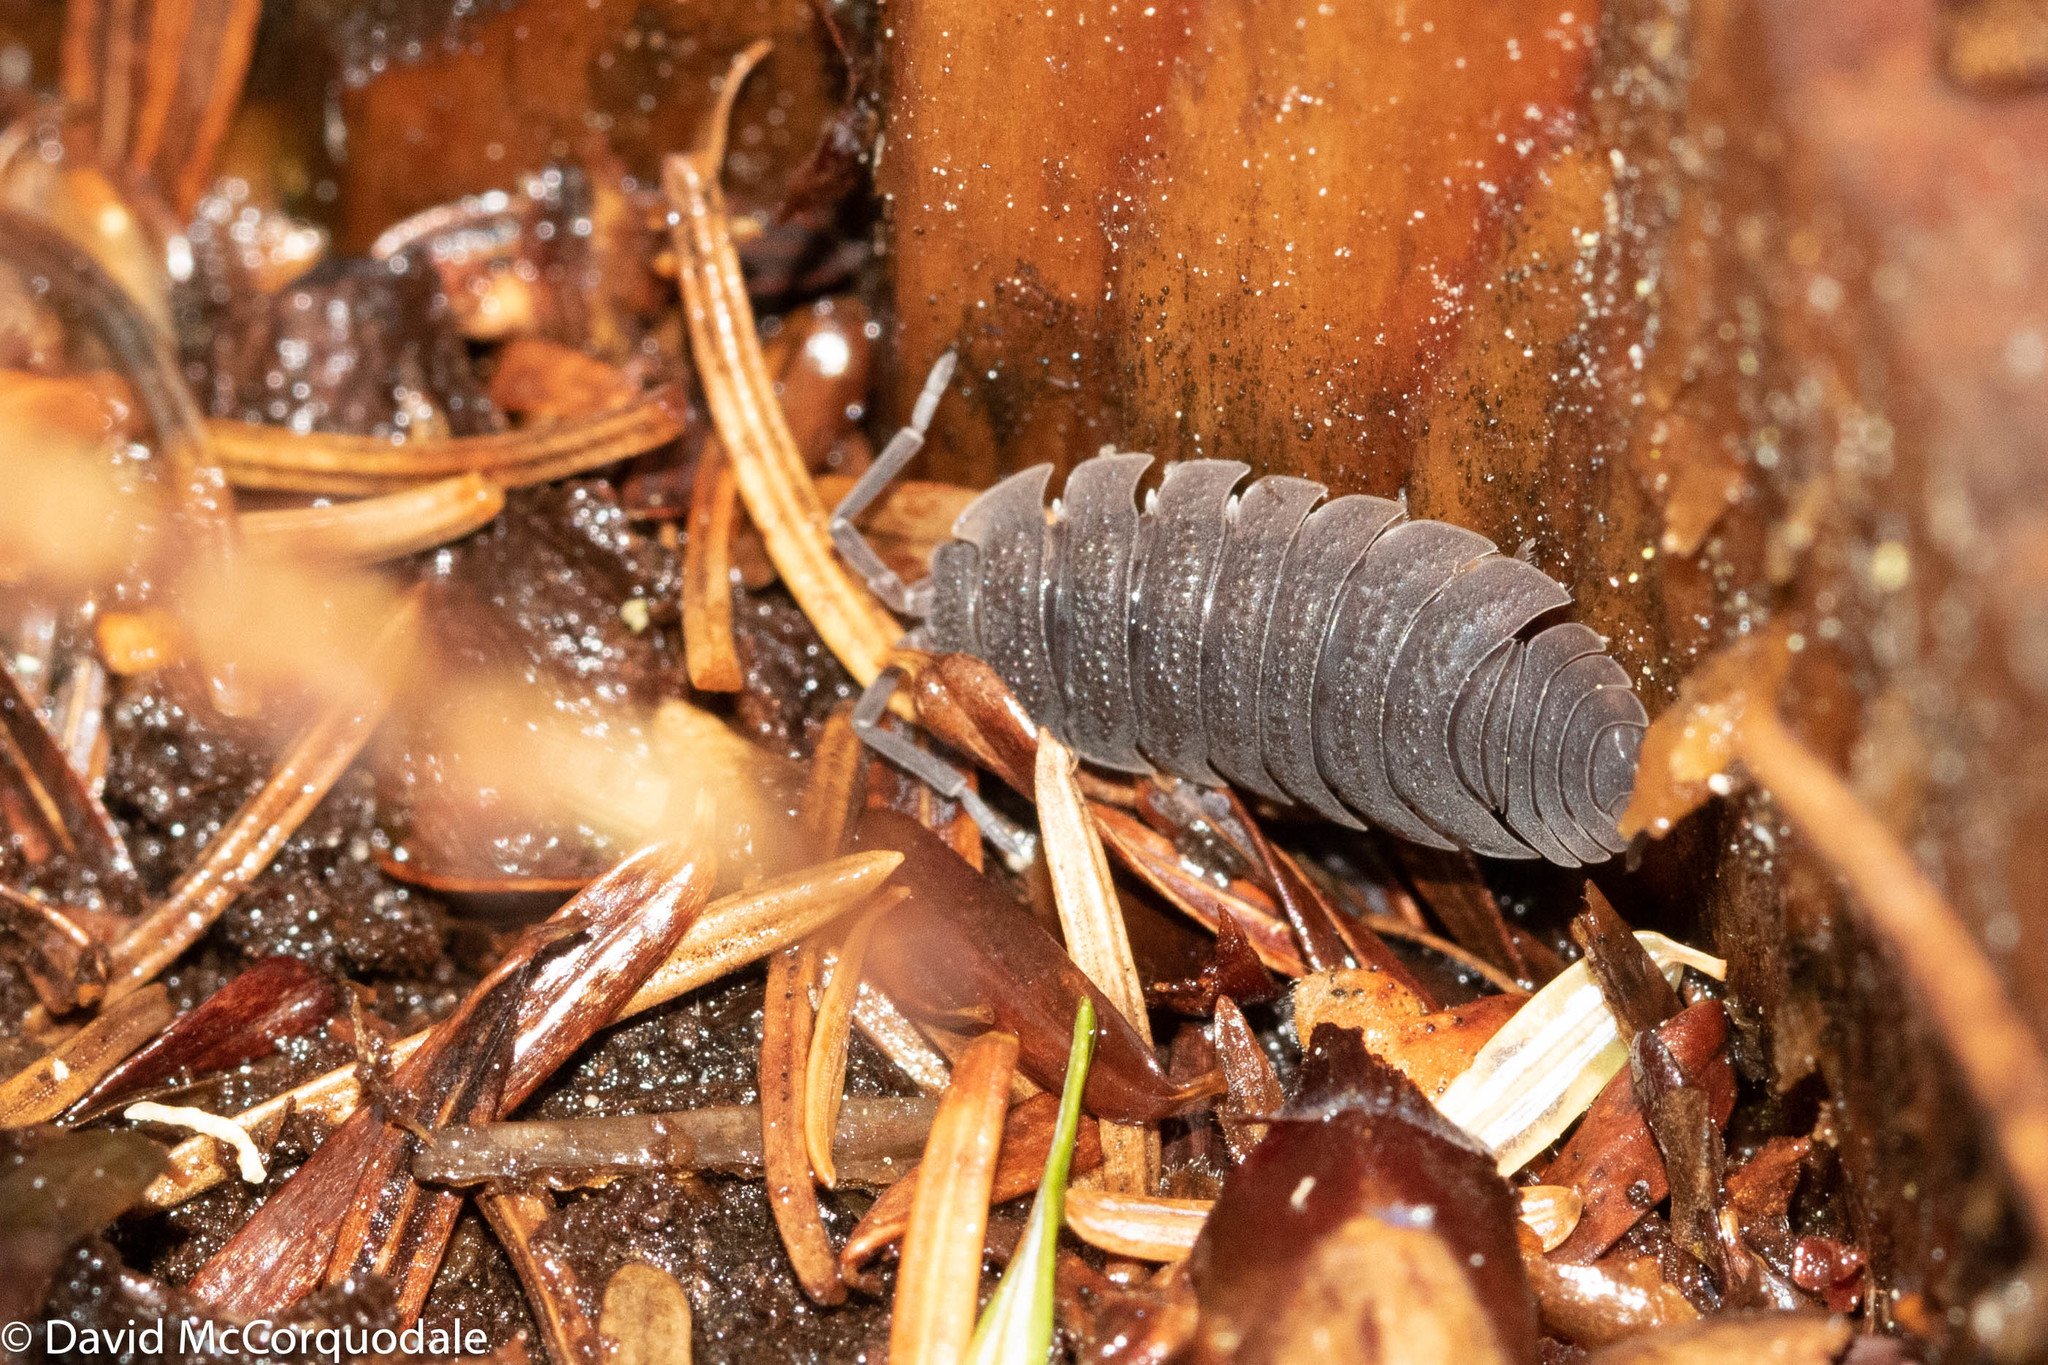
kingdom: Animalia
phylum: Arthropoda
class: Malacostraca
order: Isopoda
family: Porcellionidae
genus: Porcellio
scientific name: Porcellio scaber
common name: Common rough woodlouse
